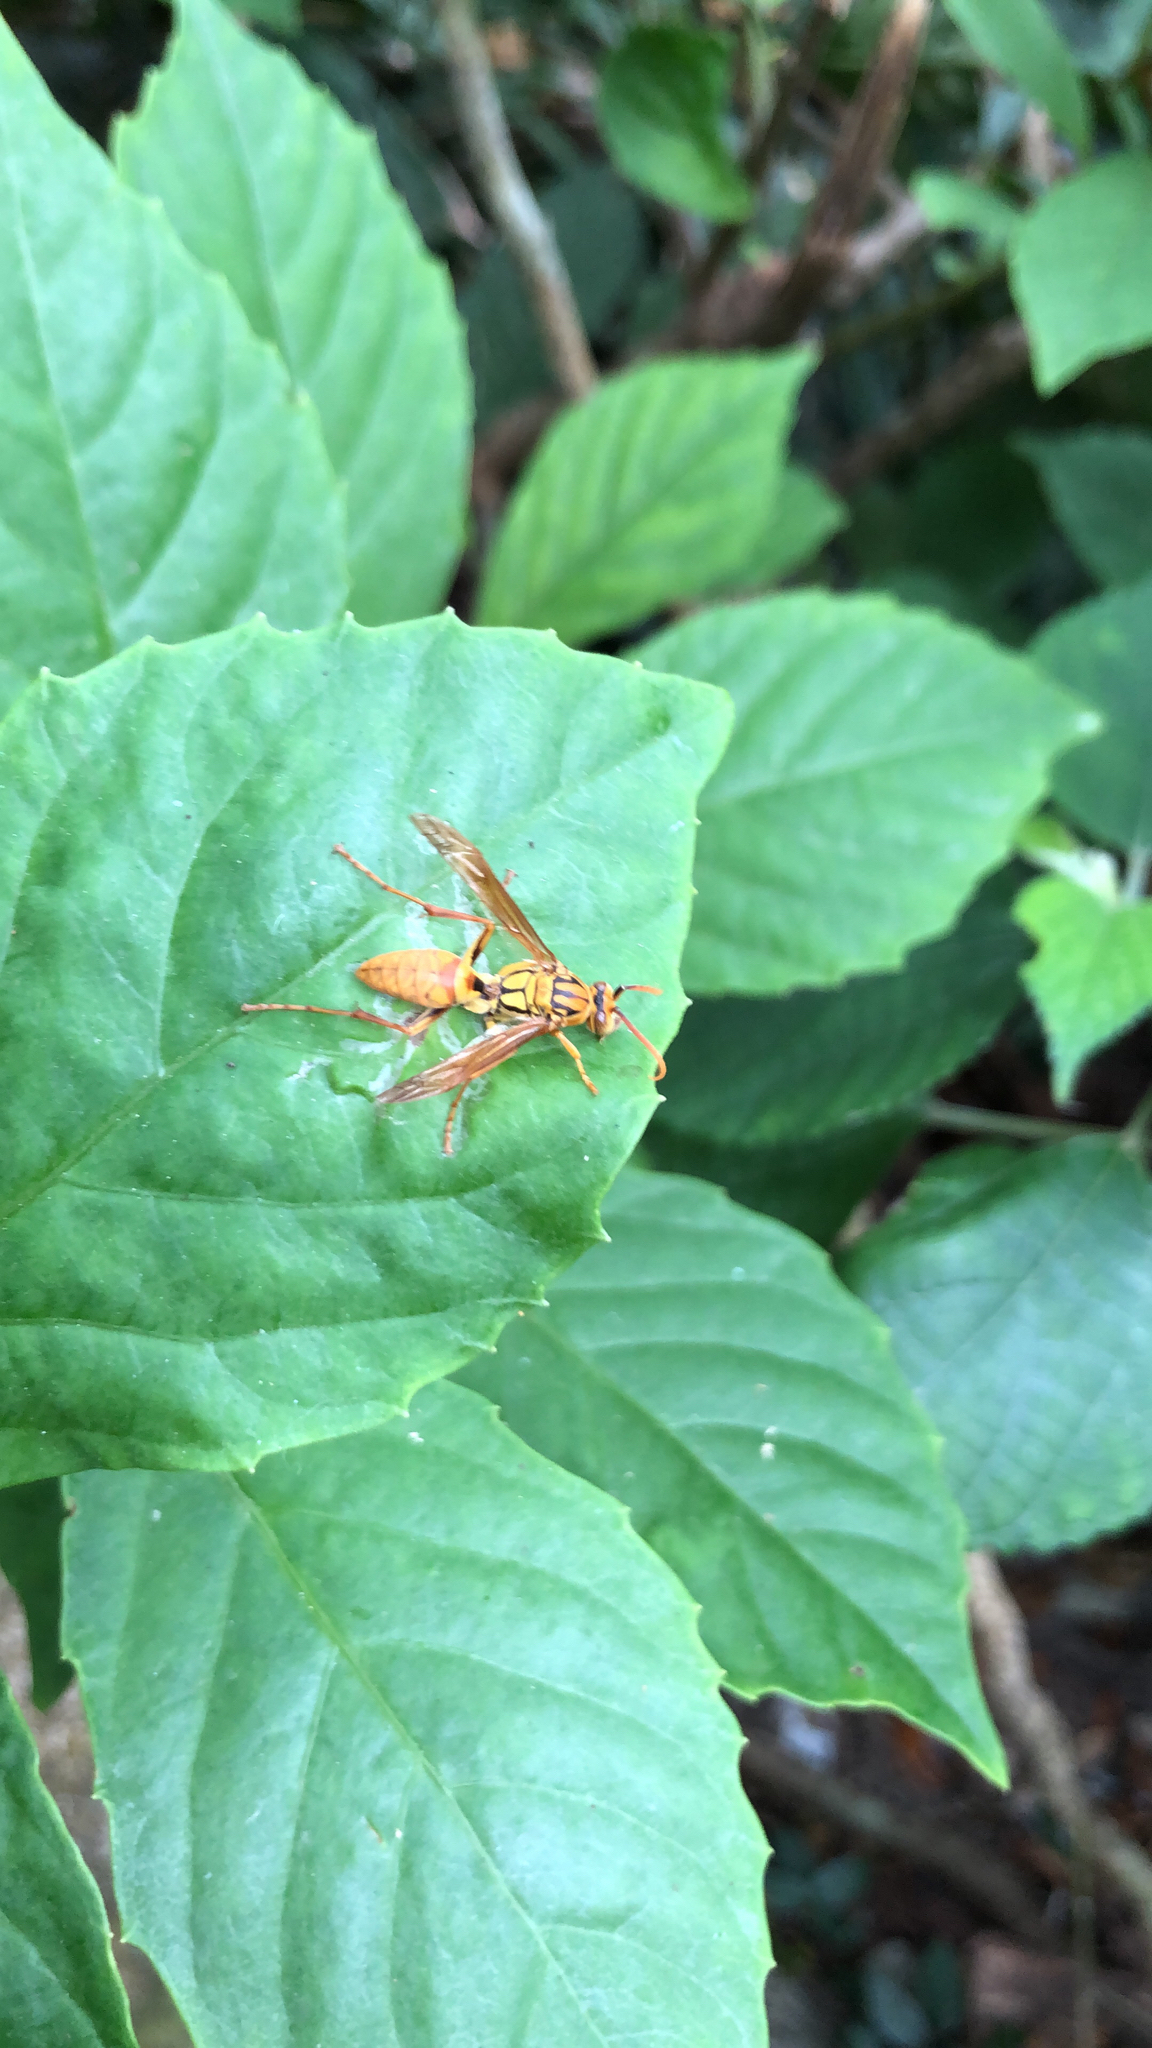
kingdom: Animalia
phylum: Arthropoda
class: Insecta
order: Hymenoptera
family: Eumenidae
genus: Polistes
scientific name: Polistes japonicus
